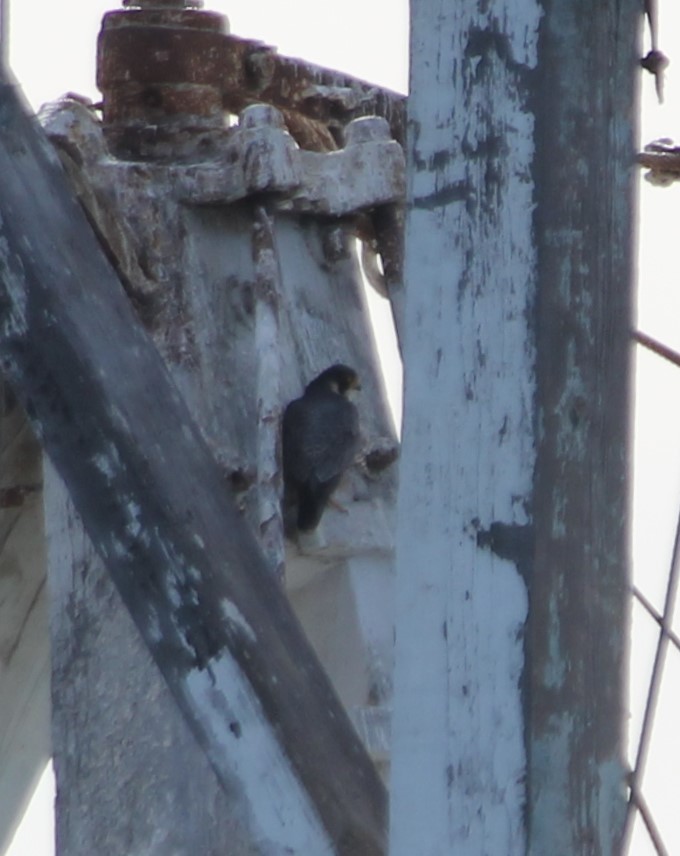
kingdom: Animalia
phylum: Chordata
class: Aves
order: Falconiformes
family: Falconidae
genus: Falco
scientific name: Falco peregrinus
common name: Peregrine falcon
